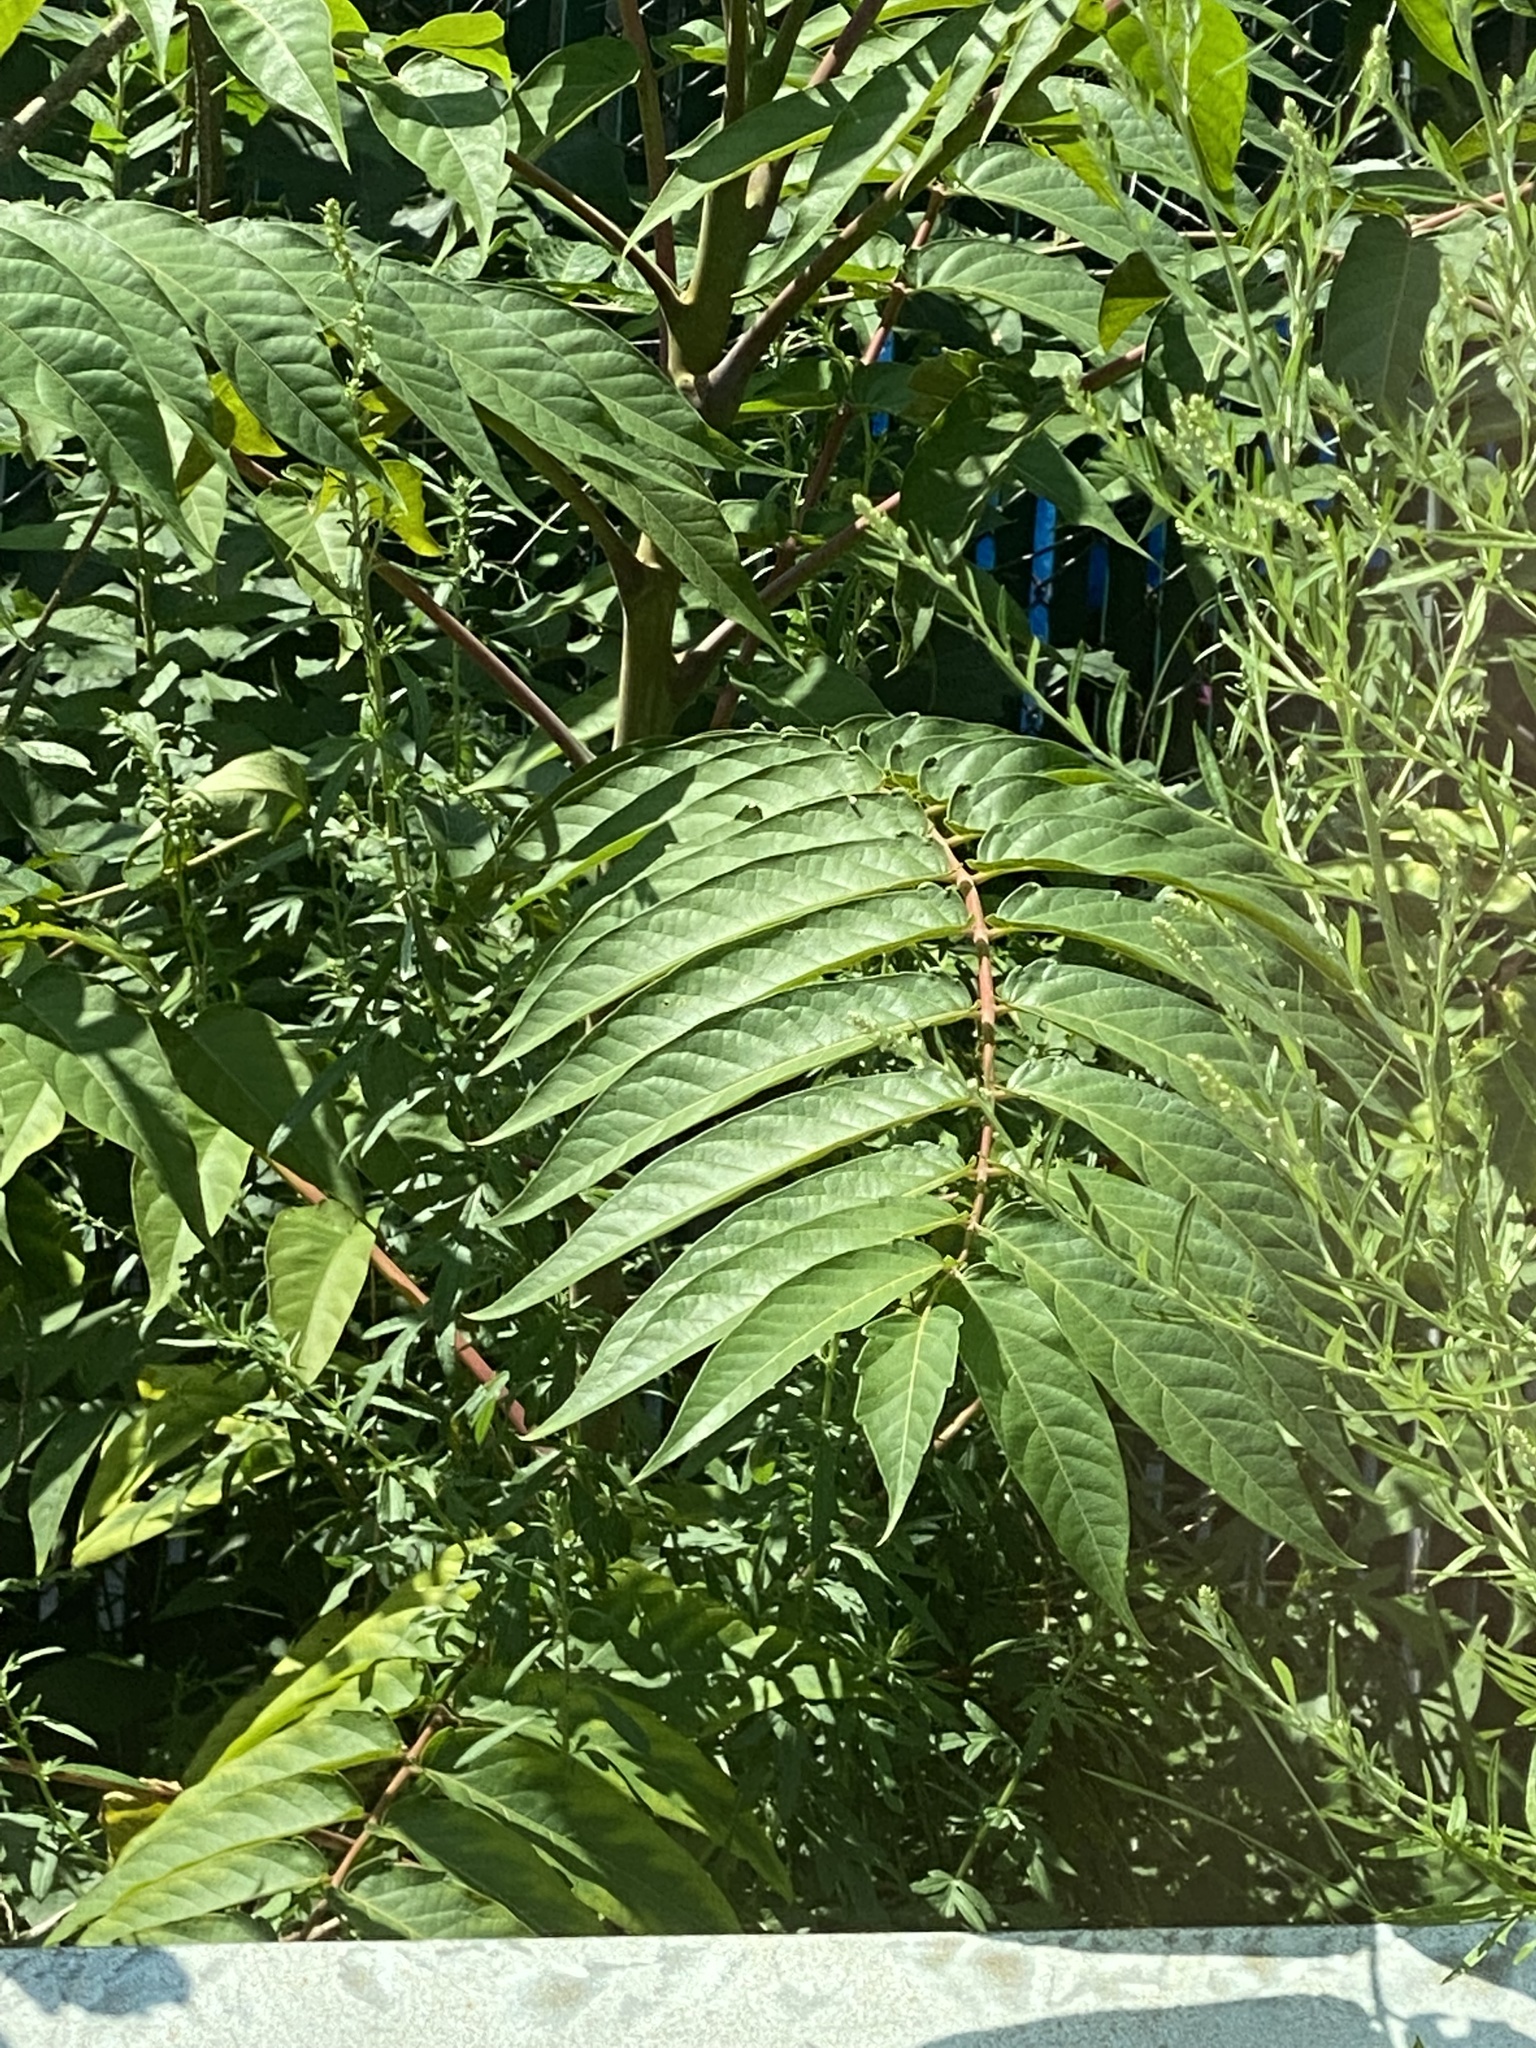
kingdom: Plantae
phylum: Tracheophyta
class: Magnoliopsida
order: Sapindales
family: Simaroubaceae
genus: Ailanthus
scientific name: Ailanthus altissima
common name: Tree-of-heaven
